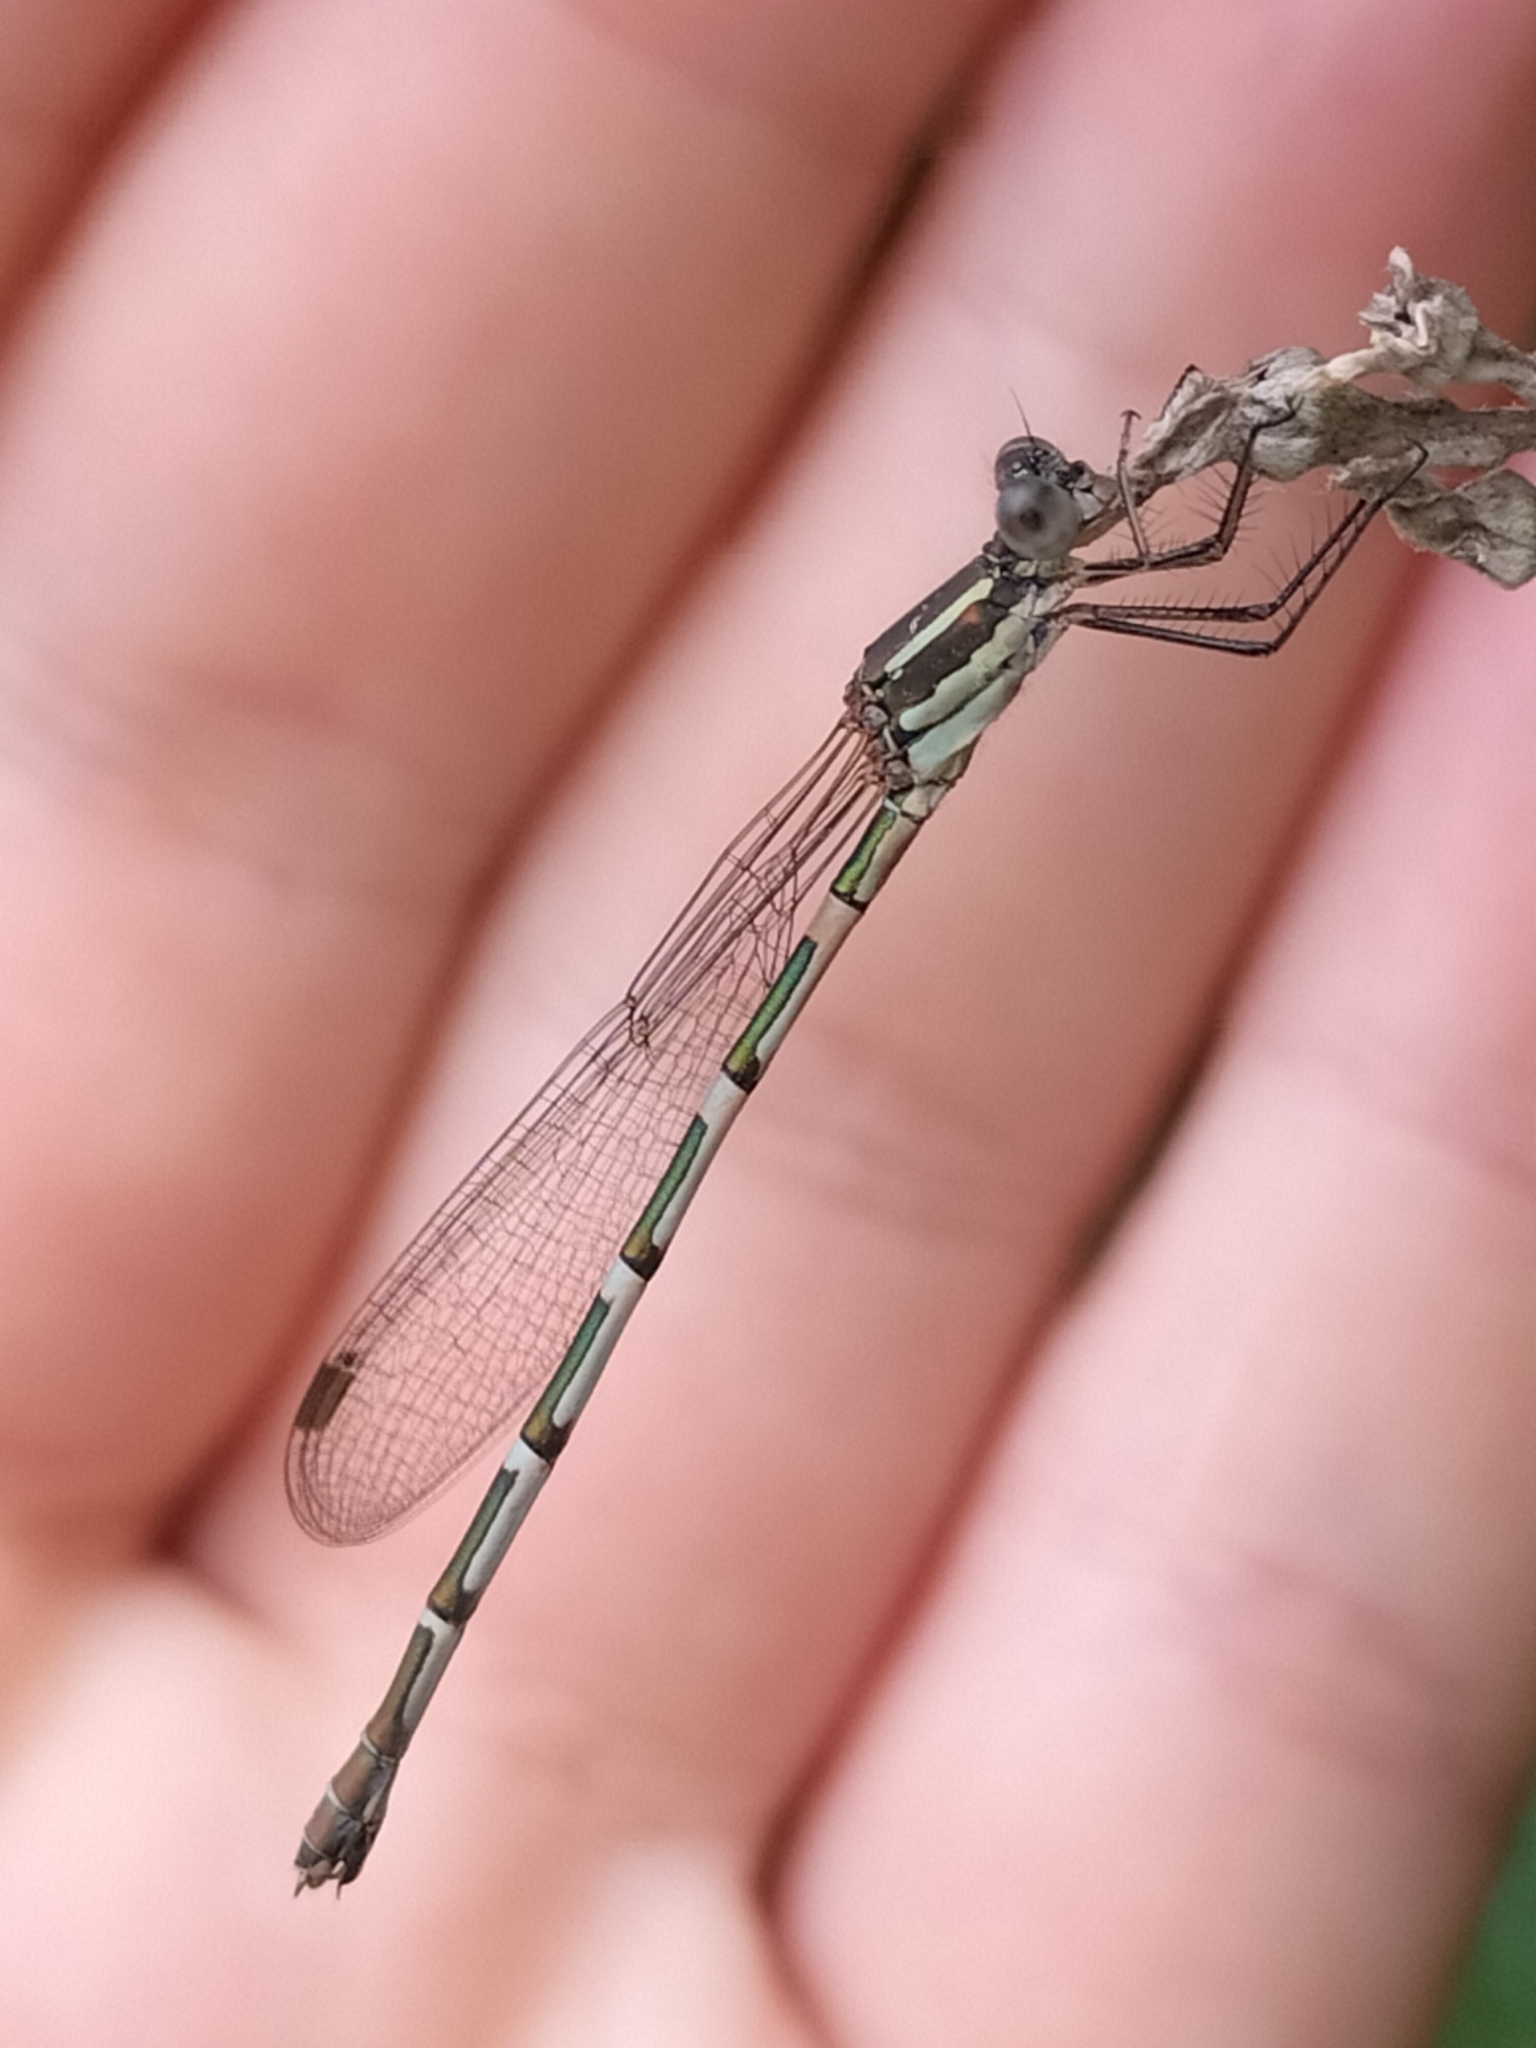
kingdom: Animalia
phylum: Arthropoda
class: Insecta
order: Odonata
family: Lestidae
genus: Austrolestes
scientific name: Austrolestes leda
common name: Wandering ringtail
